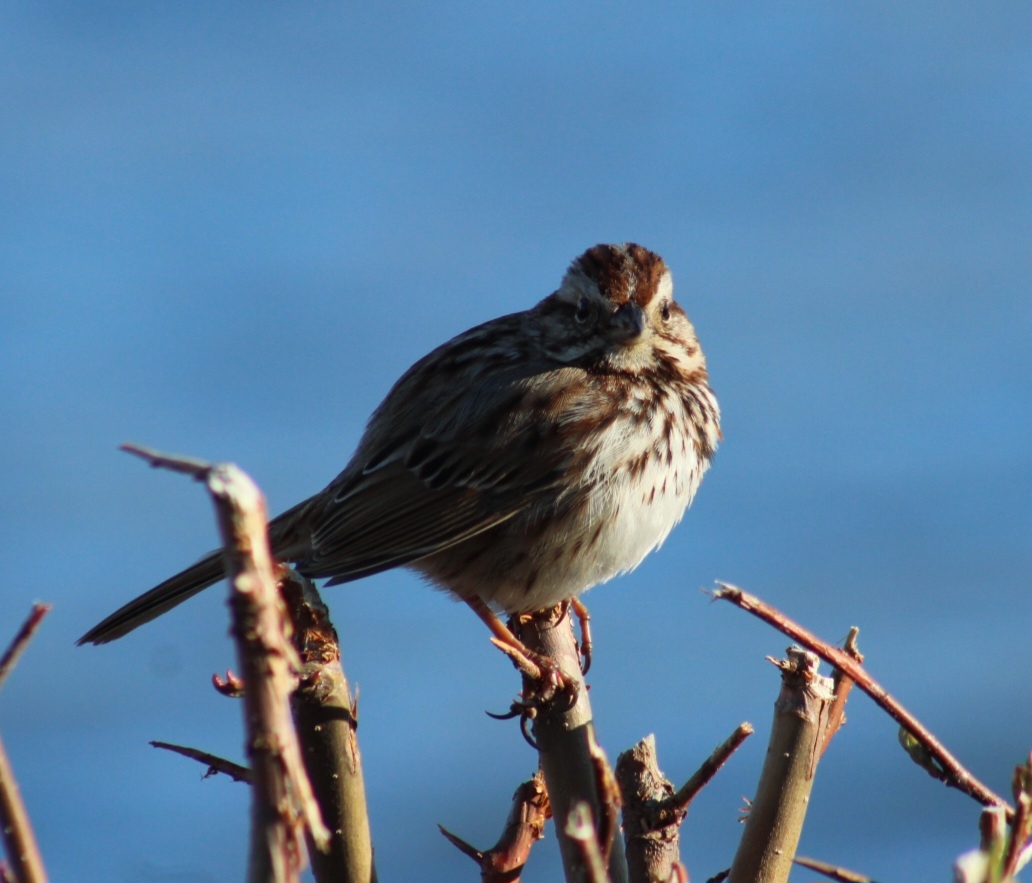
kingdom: Animalia
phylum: Chordata
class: Aves
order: Passeriformes
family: Passerellidae
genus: Melospiza
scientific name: Melospiza melodia
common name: Song sparrow
